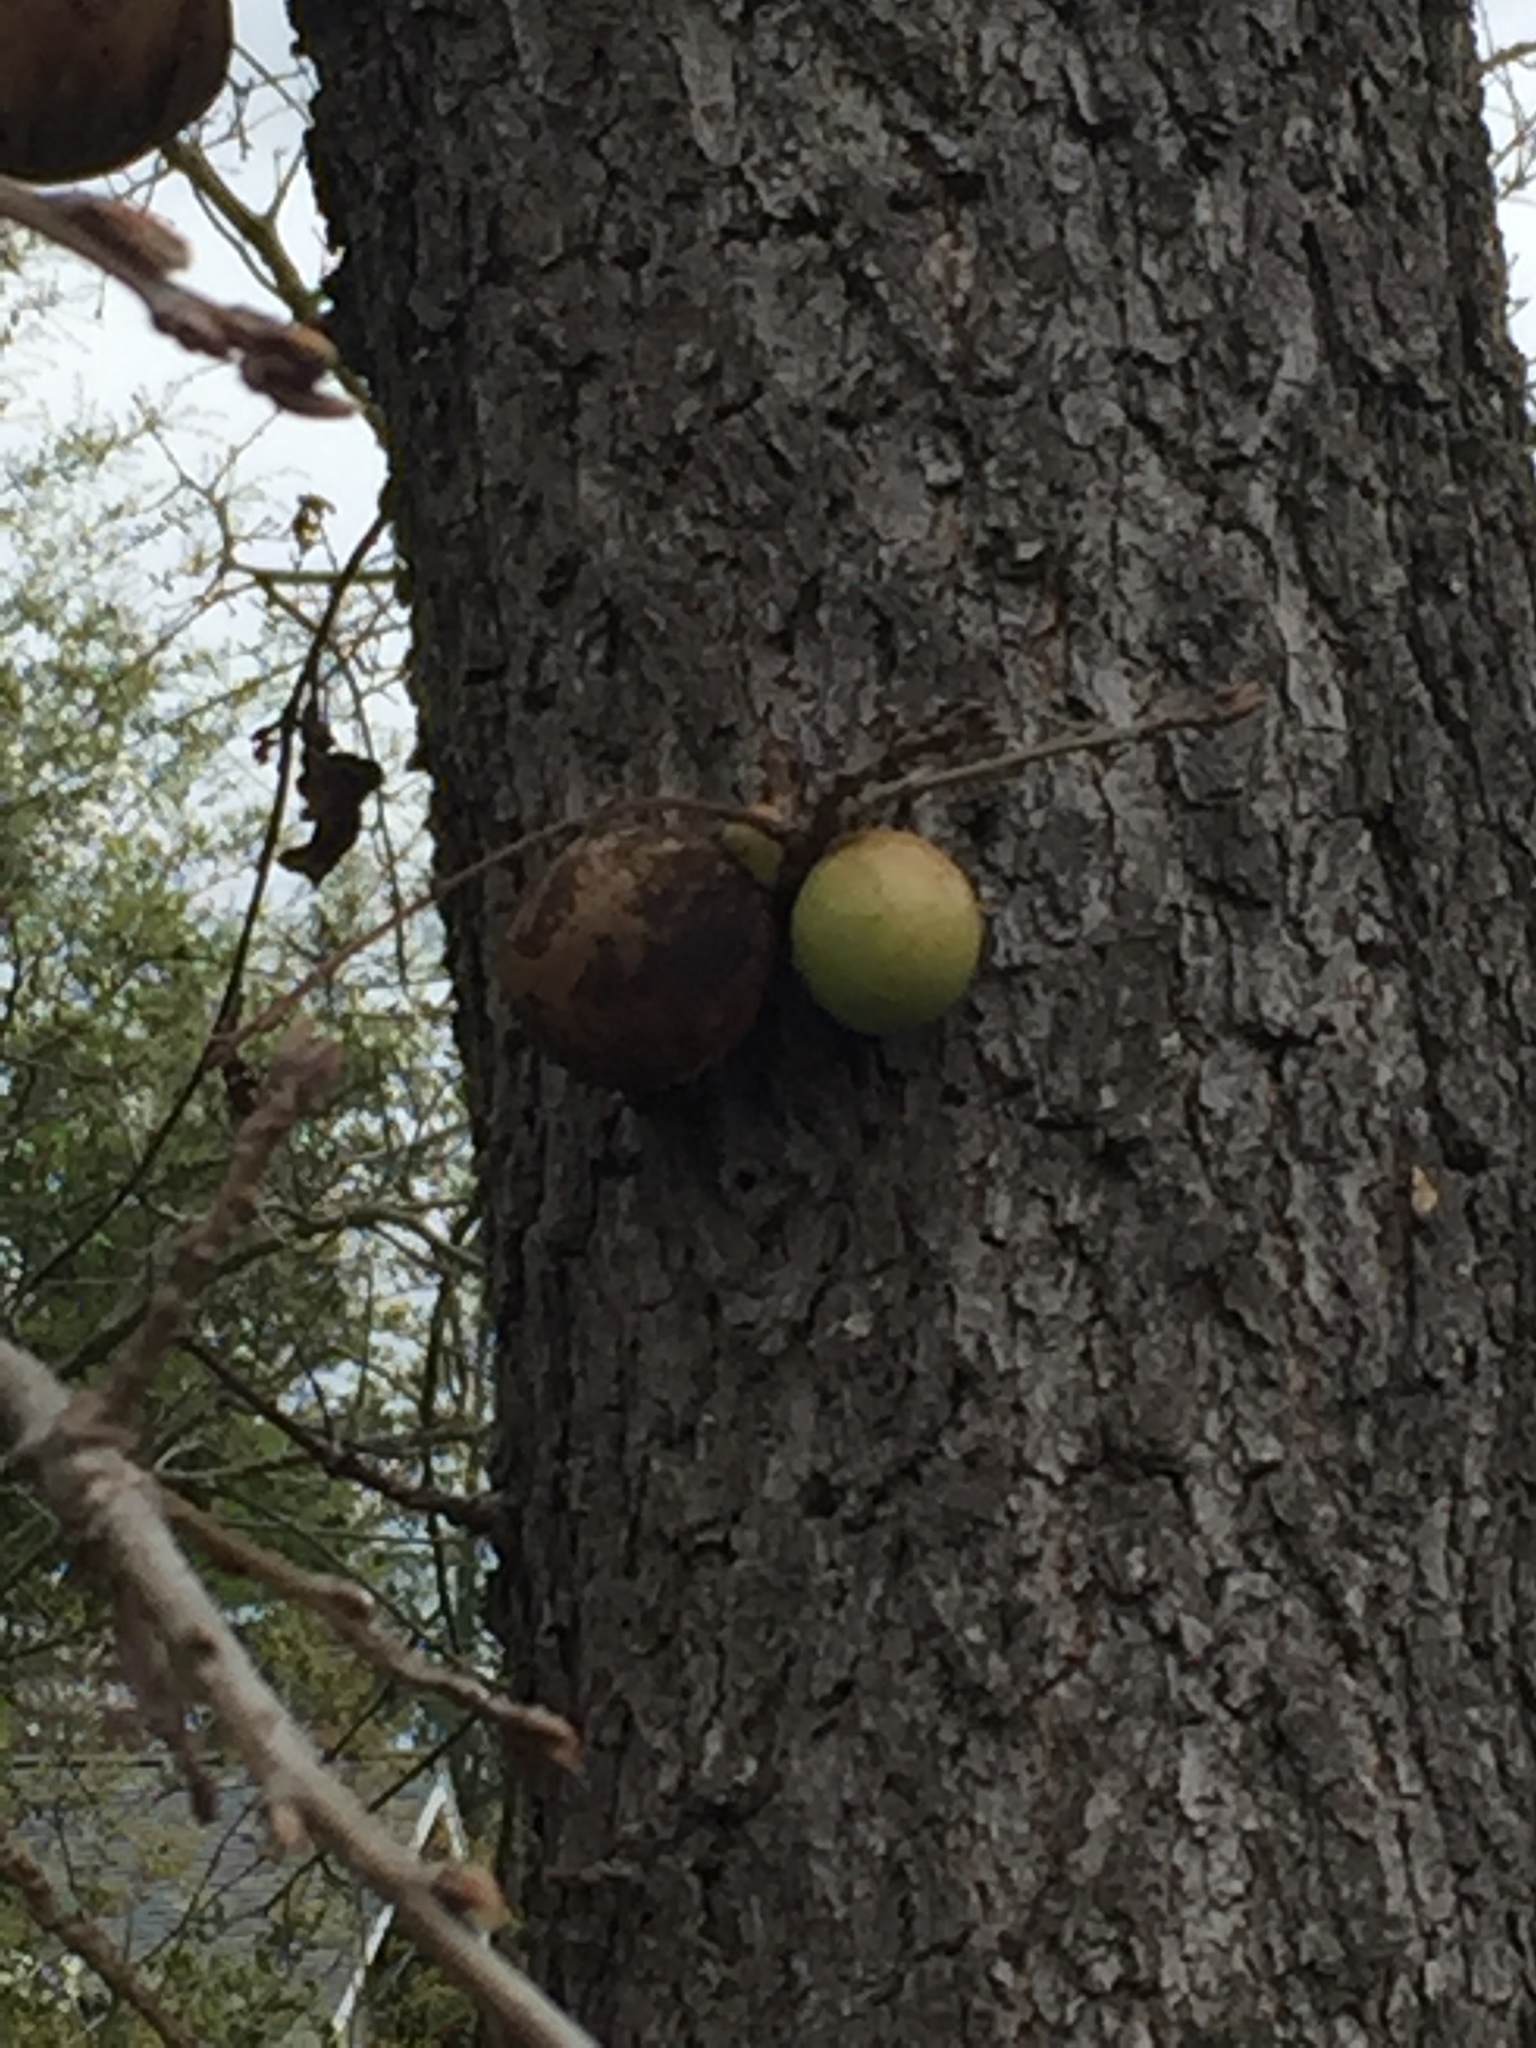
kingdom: Animalia
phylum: Arthropoda
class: Insecta
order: Hymenoptera
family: Cynipidae
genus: Andricus
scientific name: Andricus quercuscalifornicus
